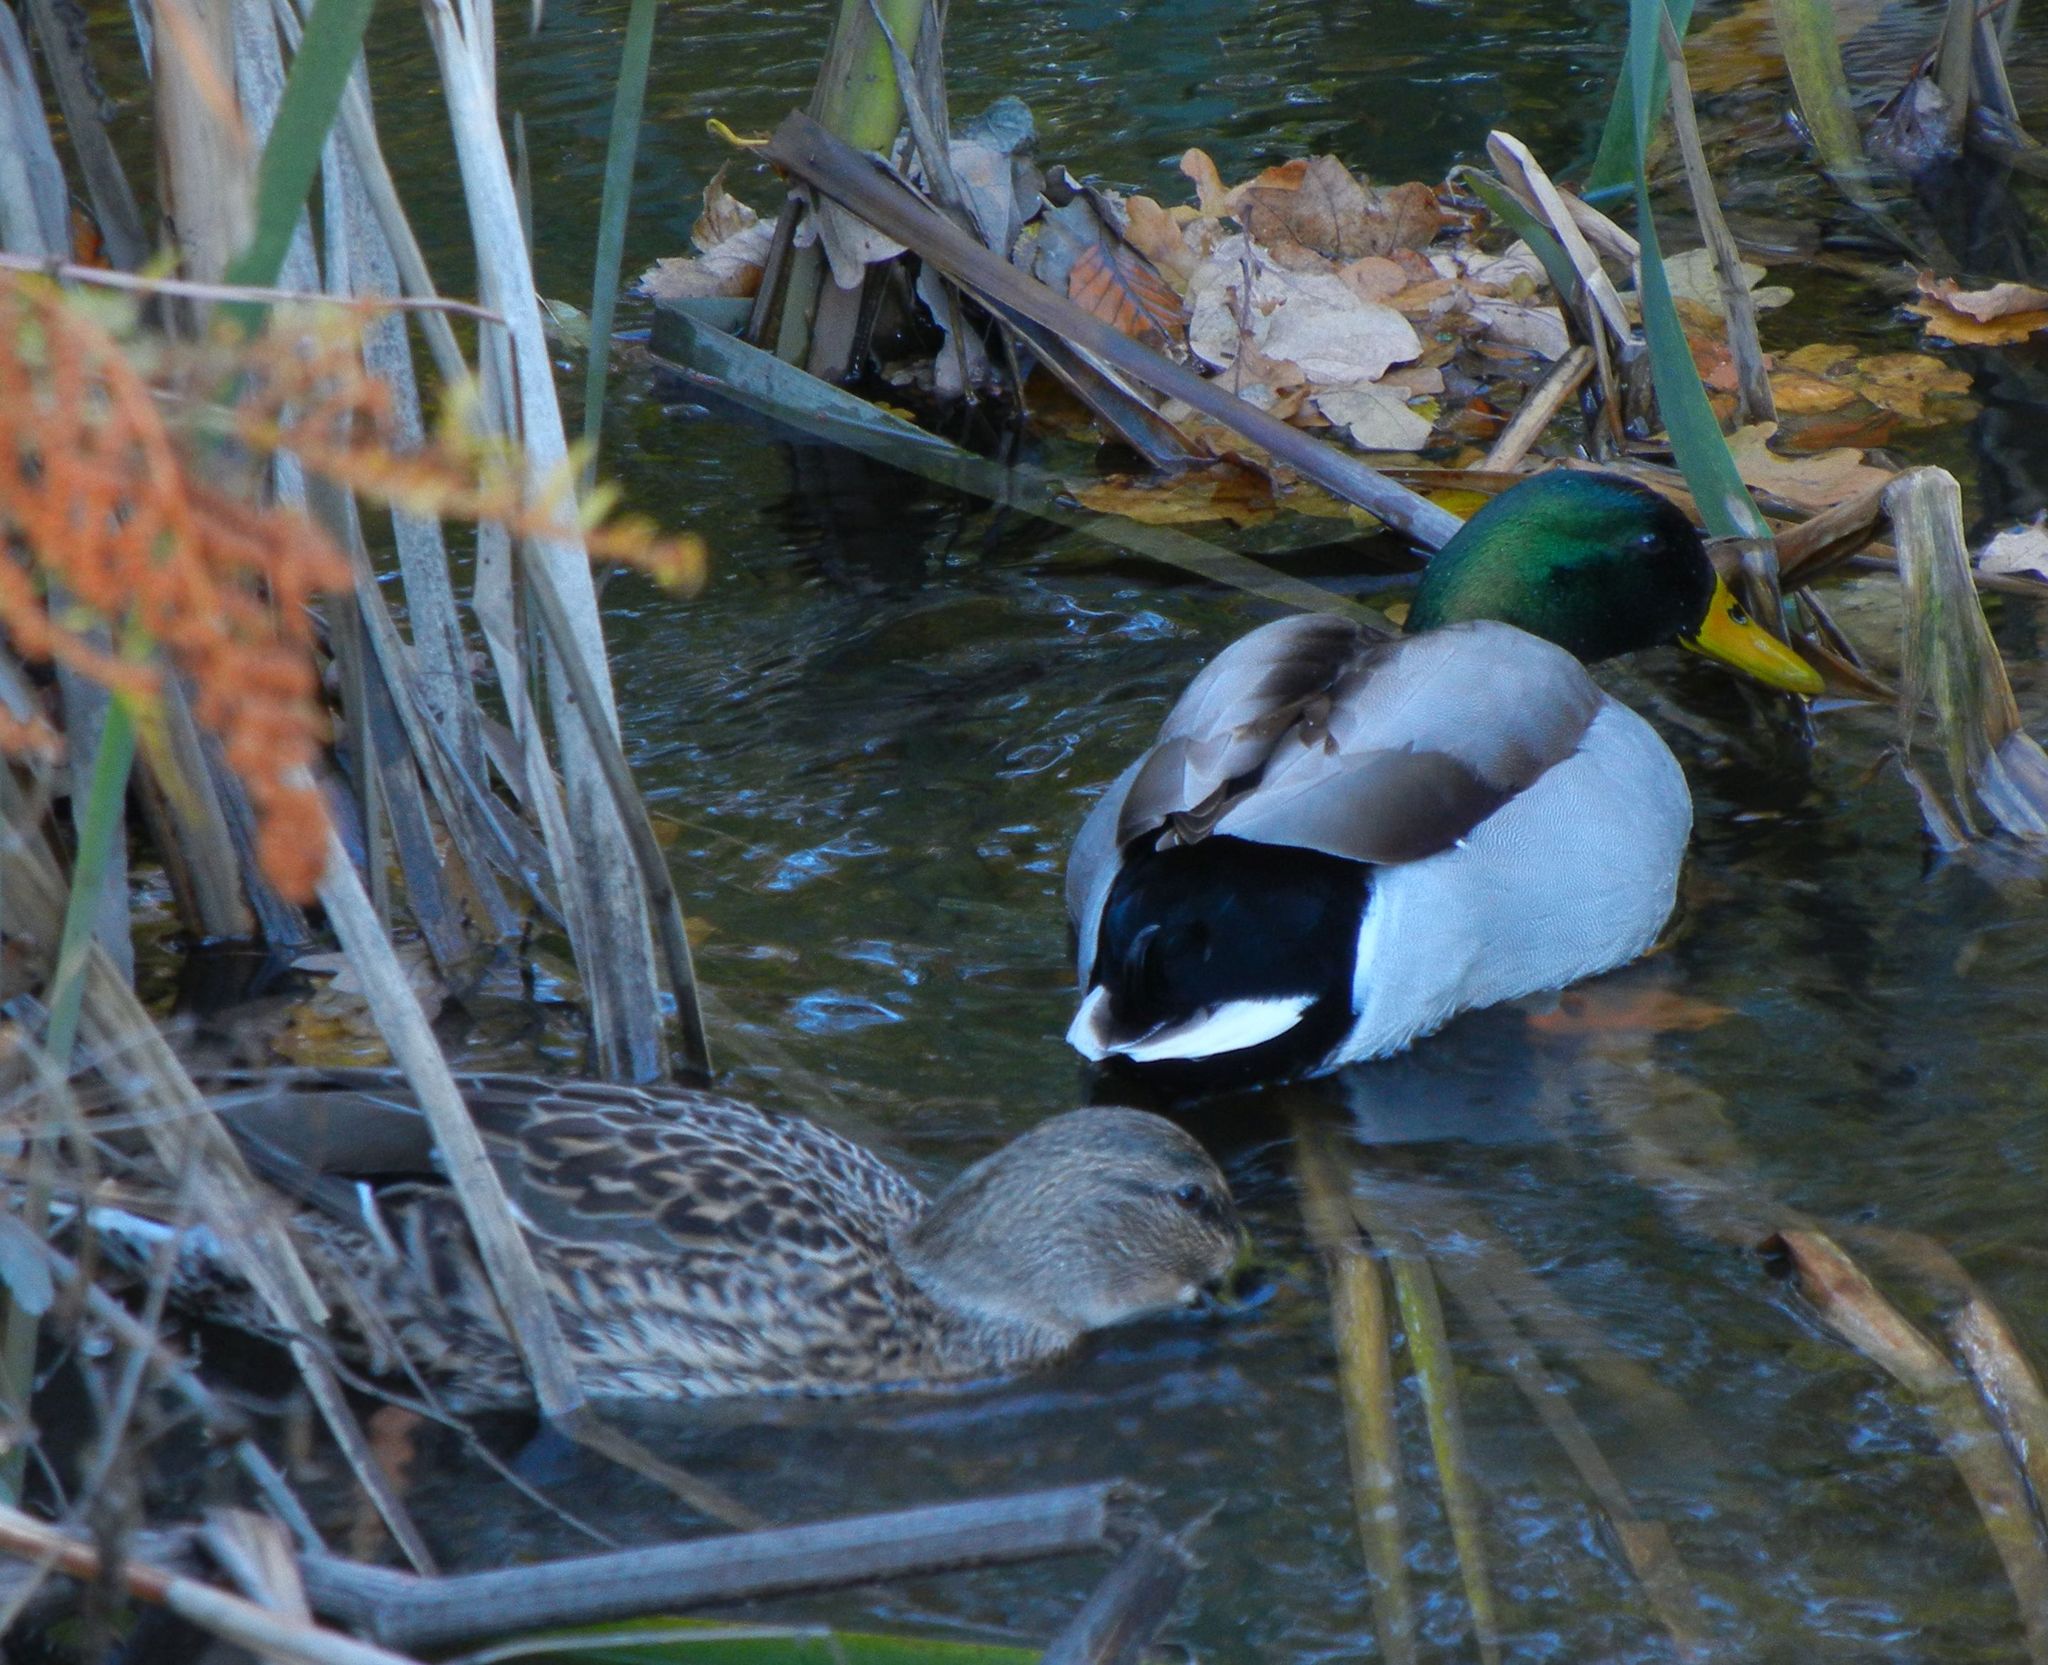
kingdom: Animalia
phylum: Chordata
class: Aves
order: Anseriformes
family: Anatidae
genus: Anas
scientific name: Anas platyrhynchos
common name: Mallard
